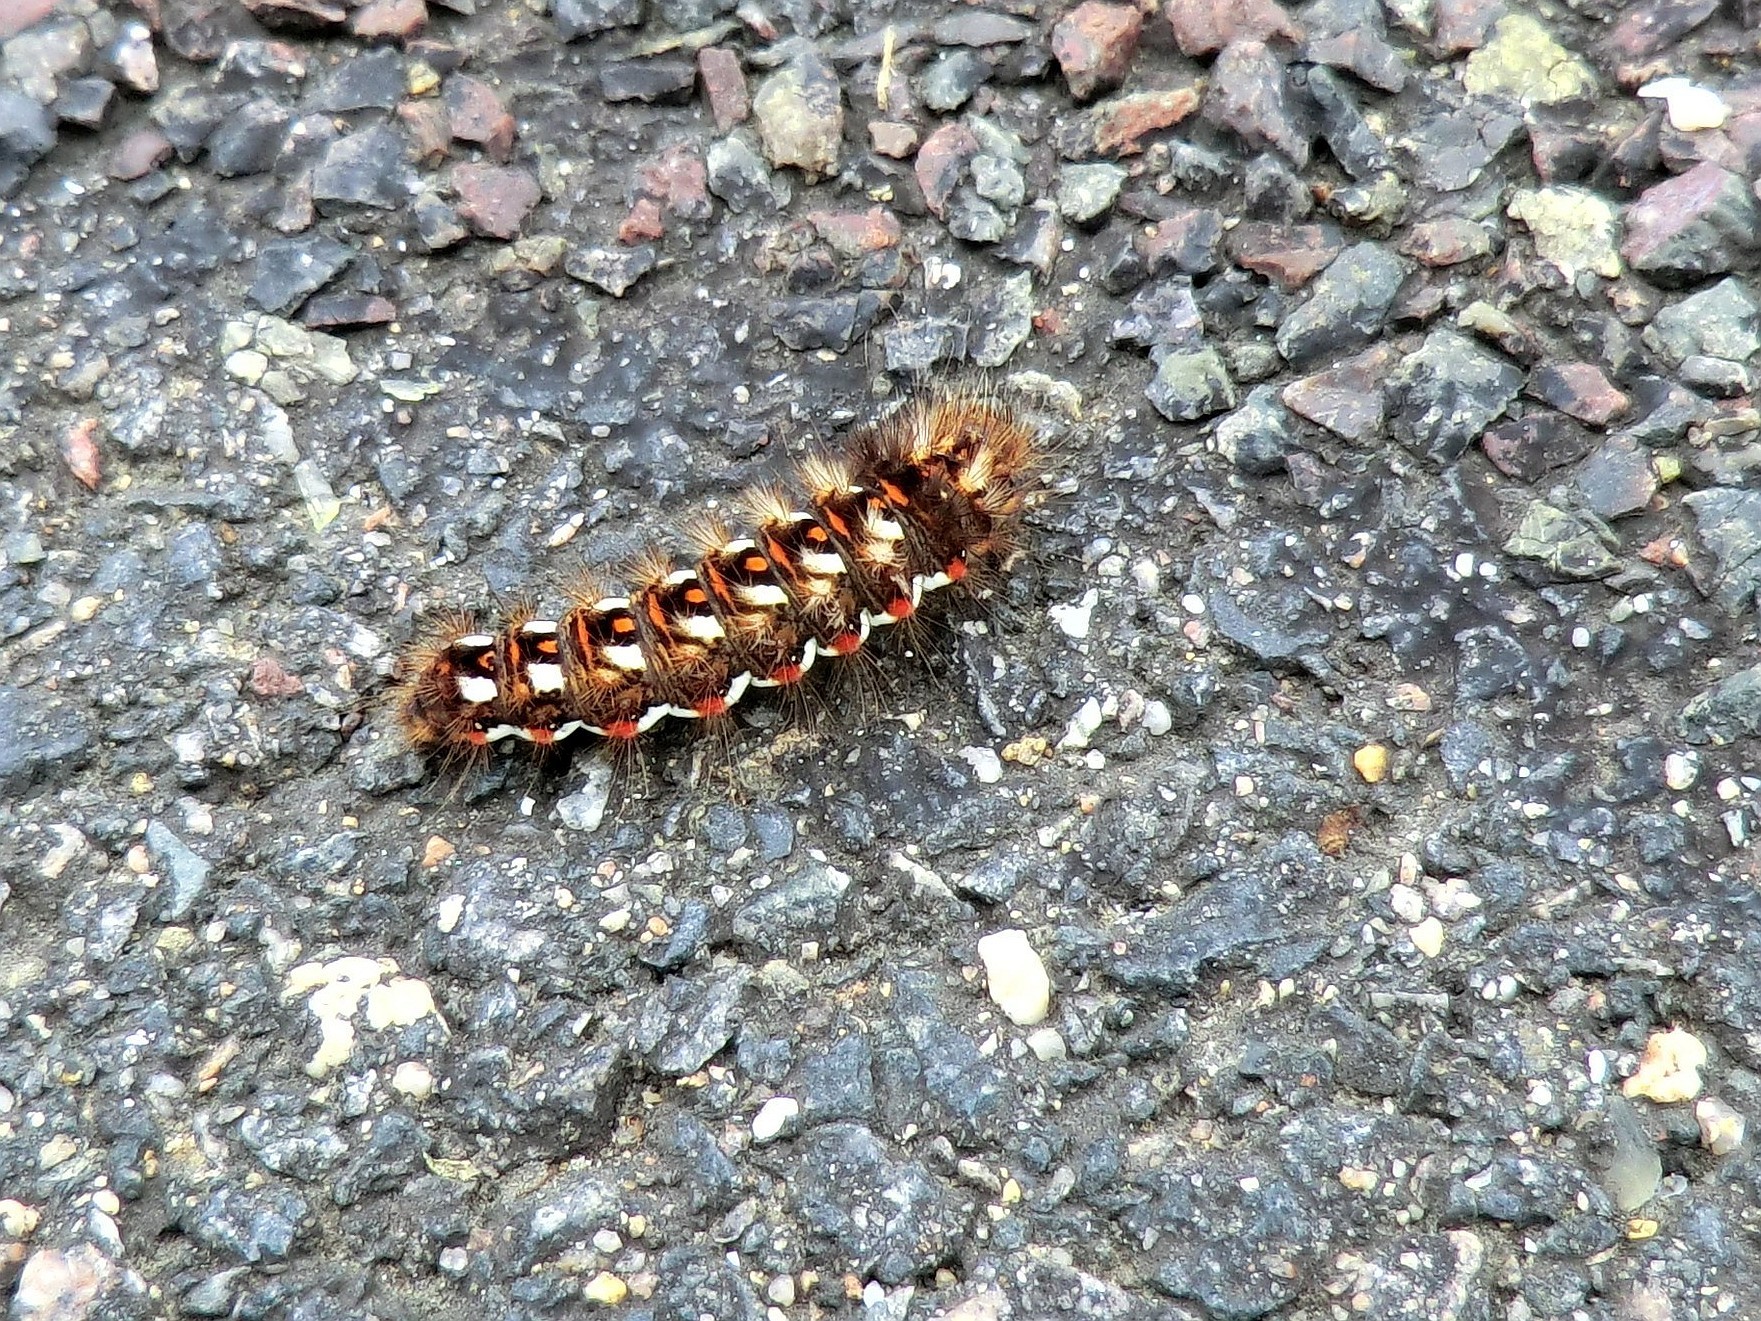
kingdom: Animalia
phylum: Arthropoda
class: Insecta
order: Lepidoptera
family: Noctuidae
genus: Acronicta
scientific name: Acronicta rumicis
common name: Knot grass
